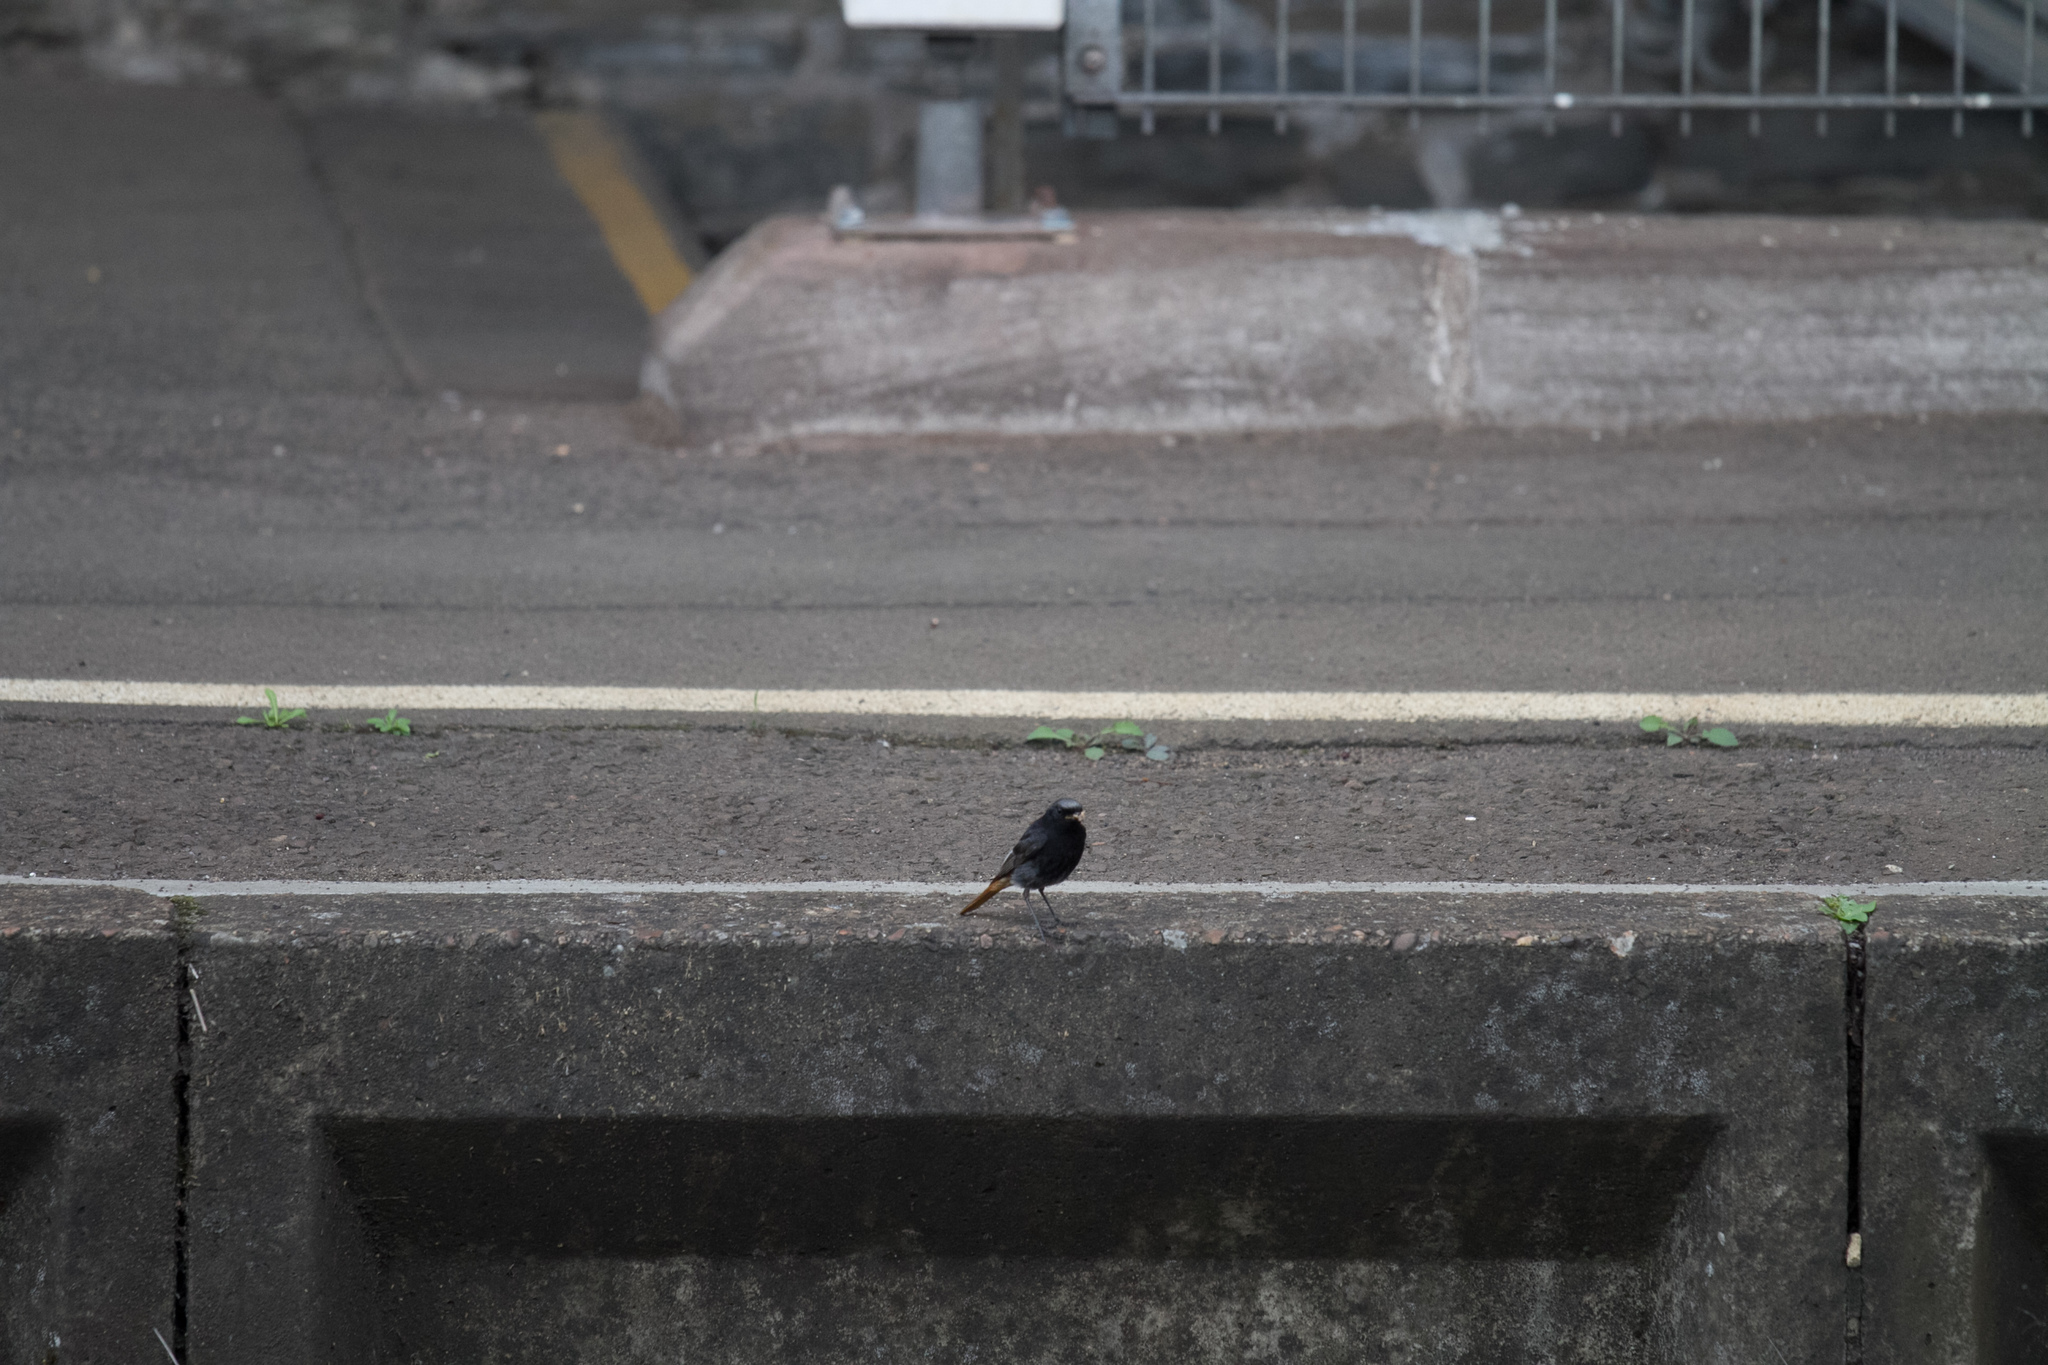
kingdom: Animalia
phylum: Chordata
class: Aves
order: Passeriformes
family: Muscicapidae
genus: Phoenicurus
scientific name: Phoenicurus ochruros
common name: Black redstart
